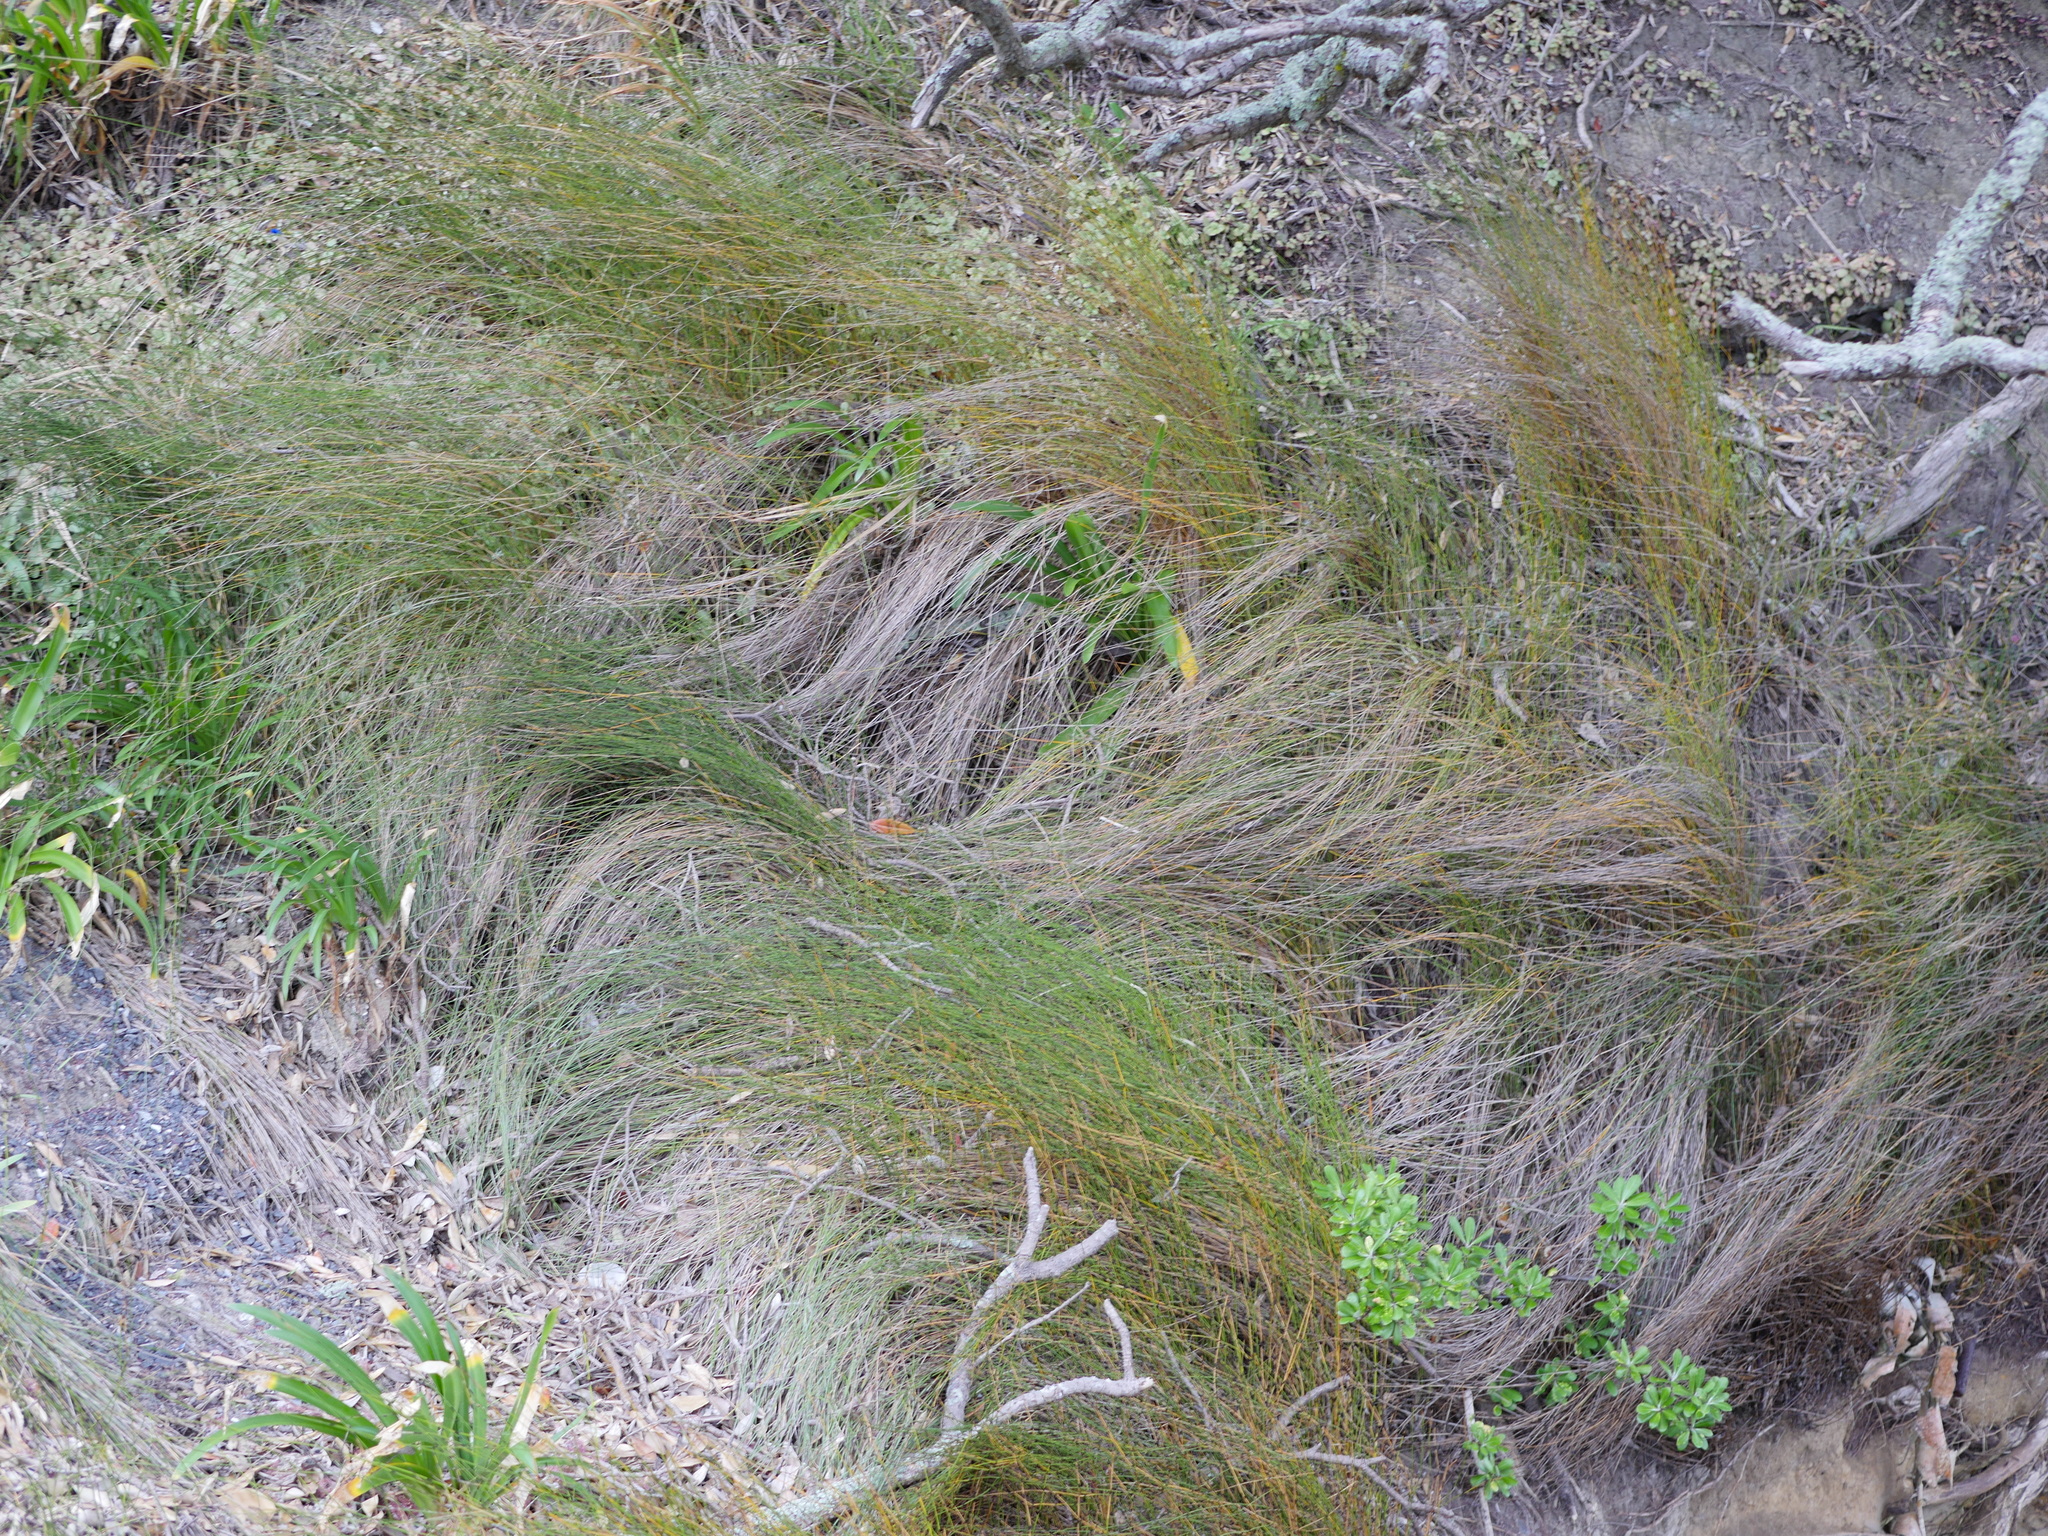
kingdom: Plantae
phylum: Tracheophyta
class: Liliopsida
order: Poales
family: Restionaceae
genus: Apodasmia
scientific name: Apodasmia similis
